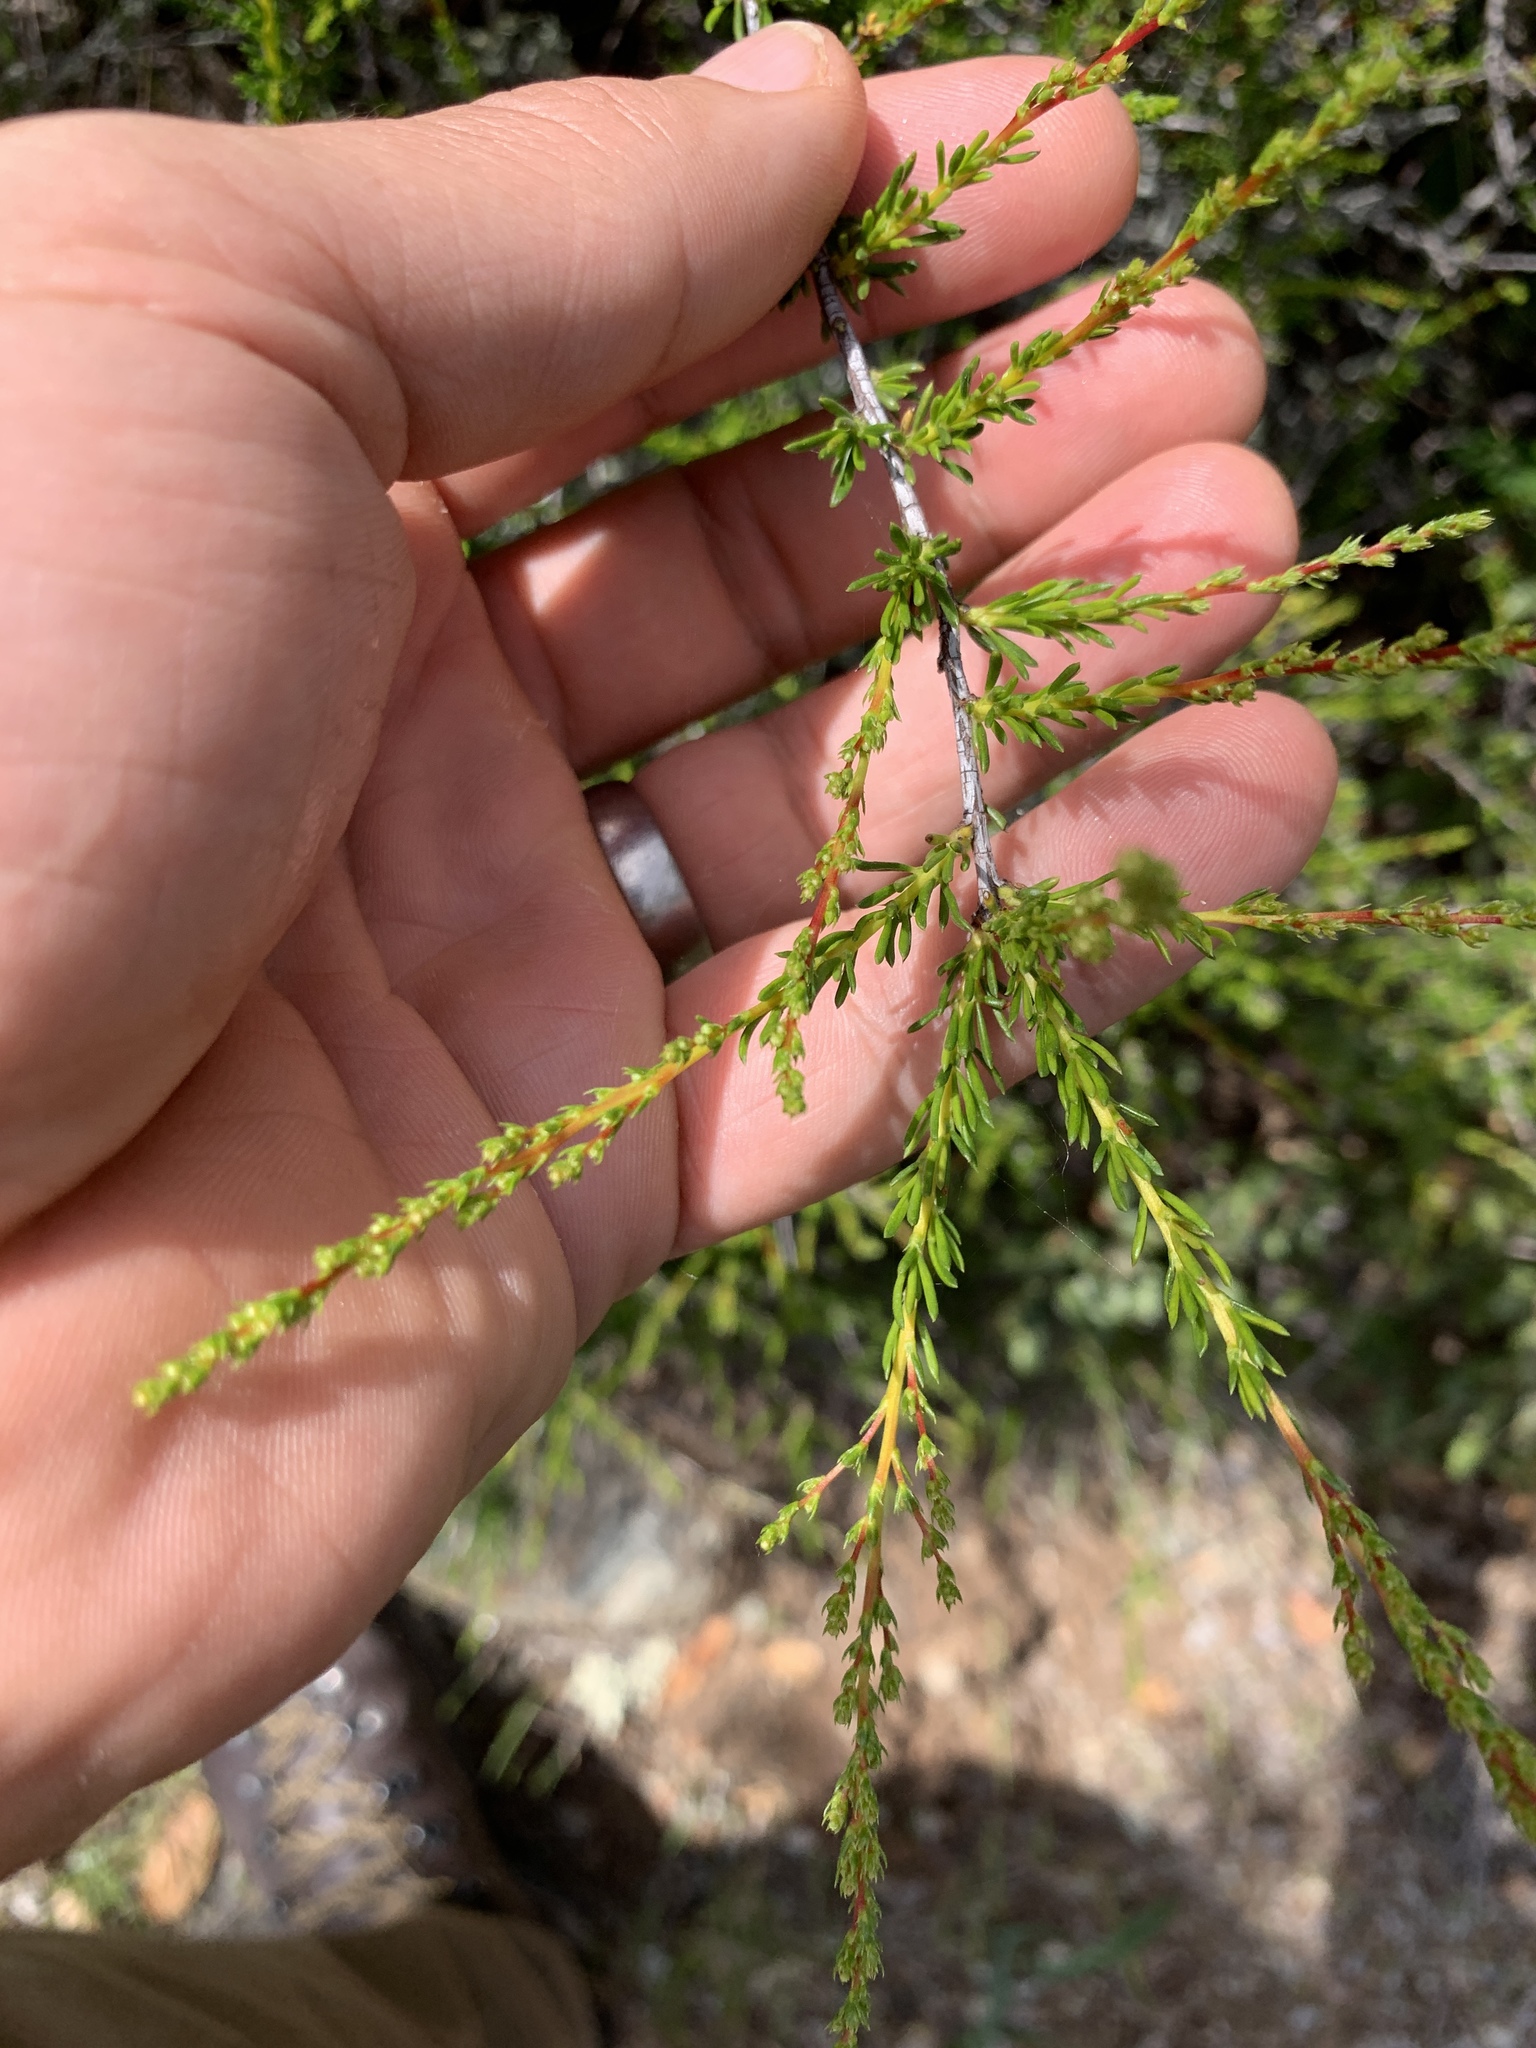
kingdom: Plantae
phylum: Tracheophyta
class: Magnoliopsida
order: Rosales
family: Rosaceae
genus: Adenostoma
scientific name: Adenostoma fasciculatum
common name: Chamise
